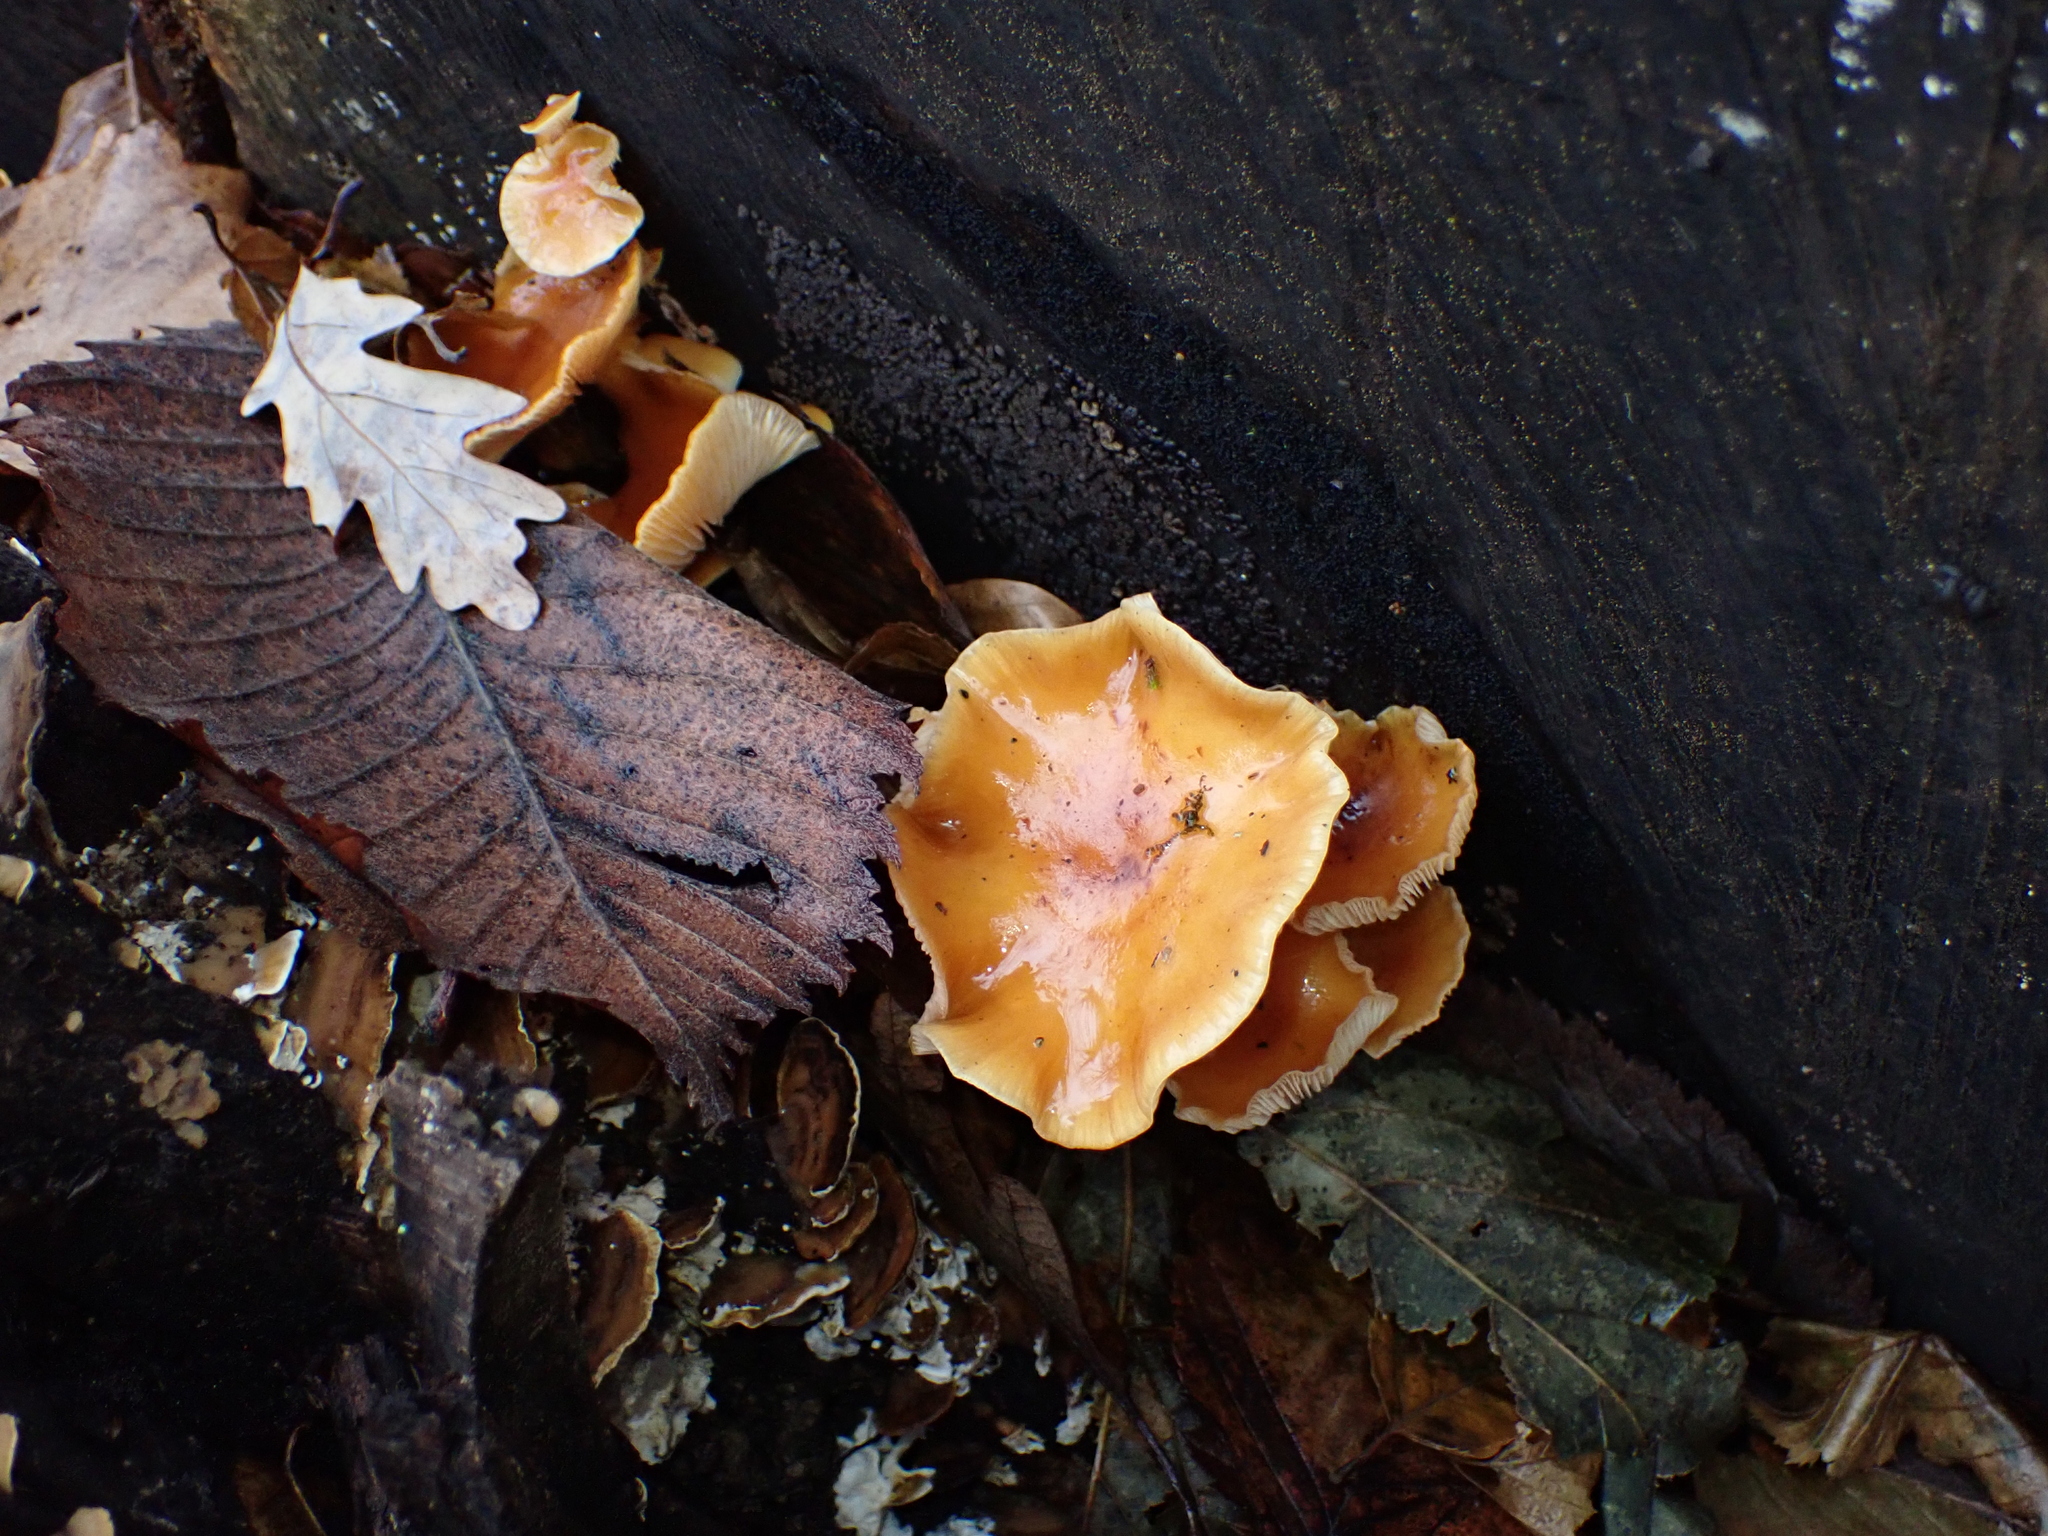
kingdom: Fungi
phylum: Basidiomycota
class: Agaricomycetes
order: Agaricales
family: Physalacriaceae
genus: Flammulina
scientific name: Flammulina
